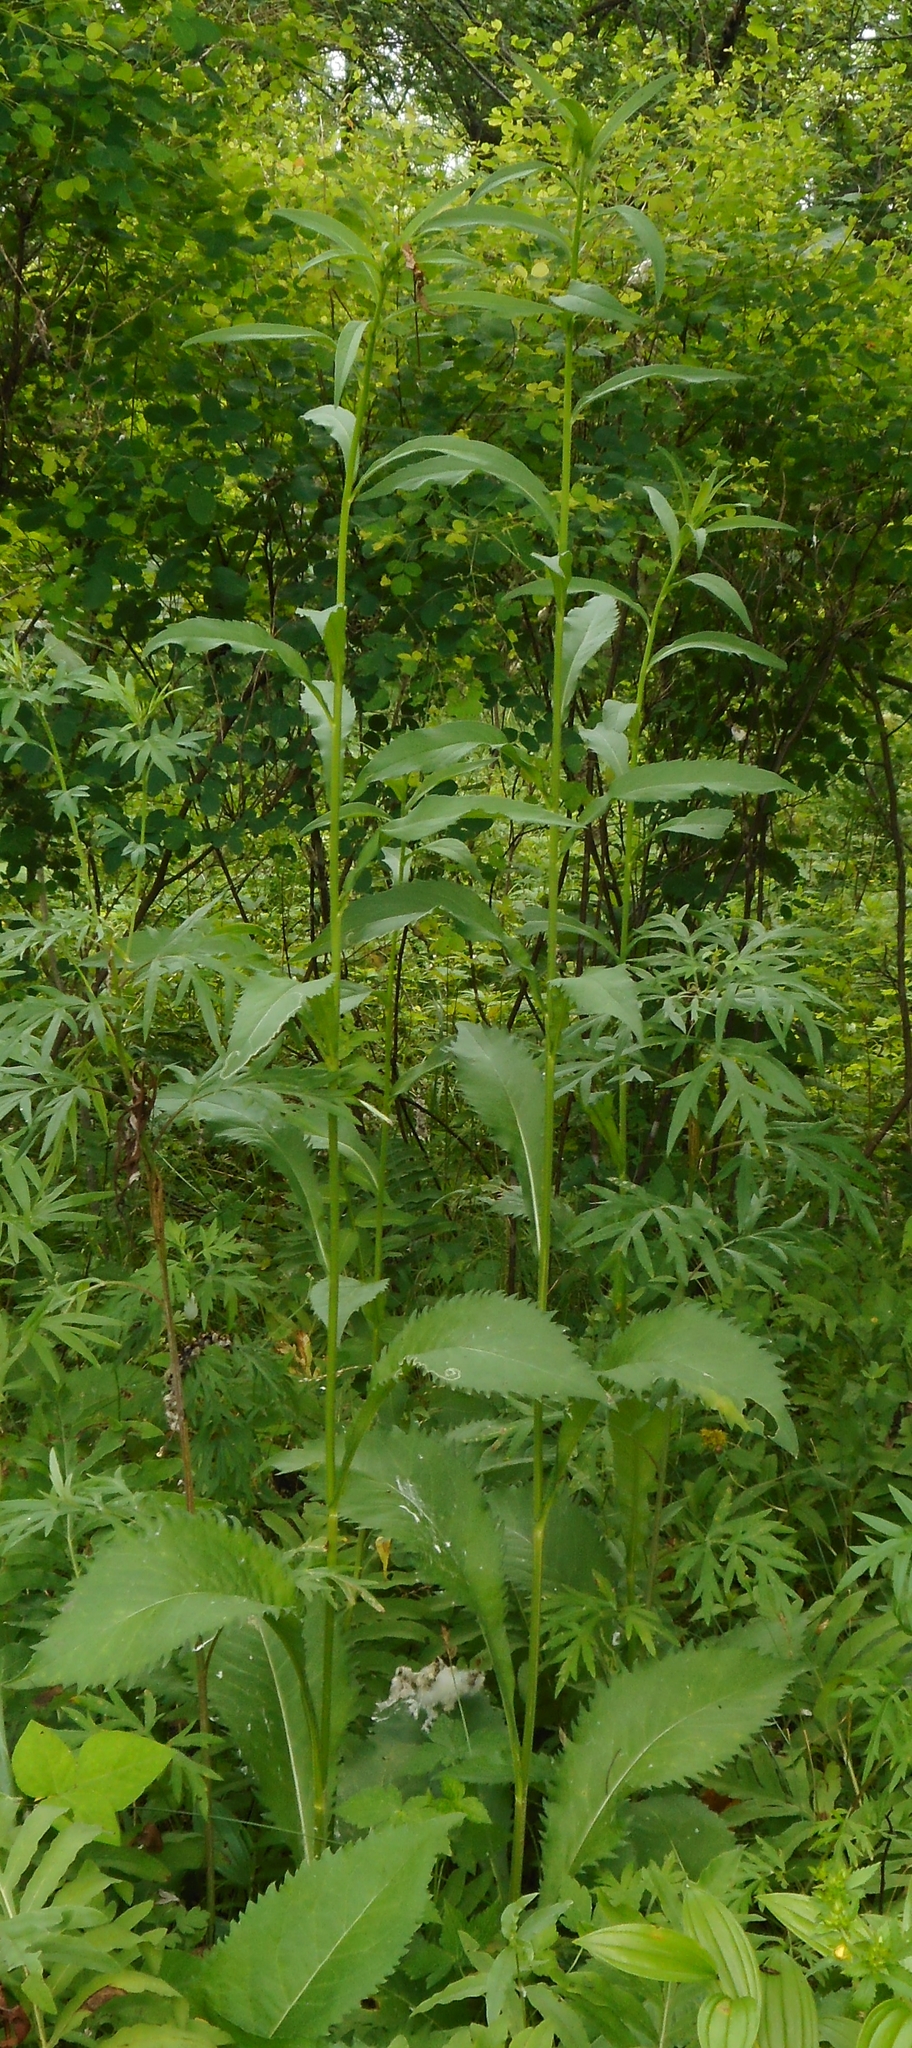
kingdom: Plantae
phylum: Tracheophyta
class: Magnoliopsida
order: Asterales
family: Asteraceae
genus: Aster
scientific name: Aster tataricus
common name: Tatarian aster
